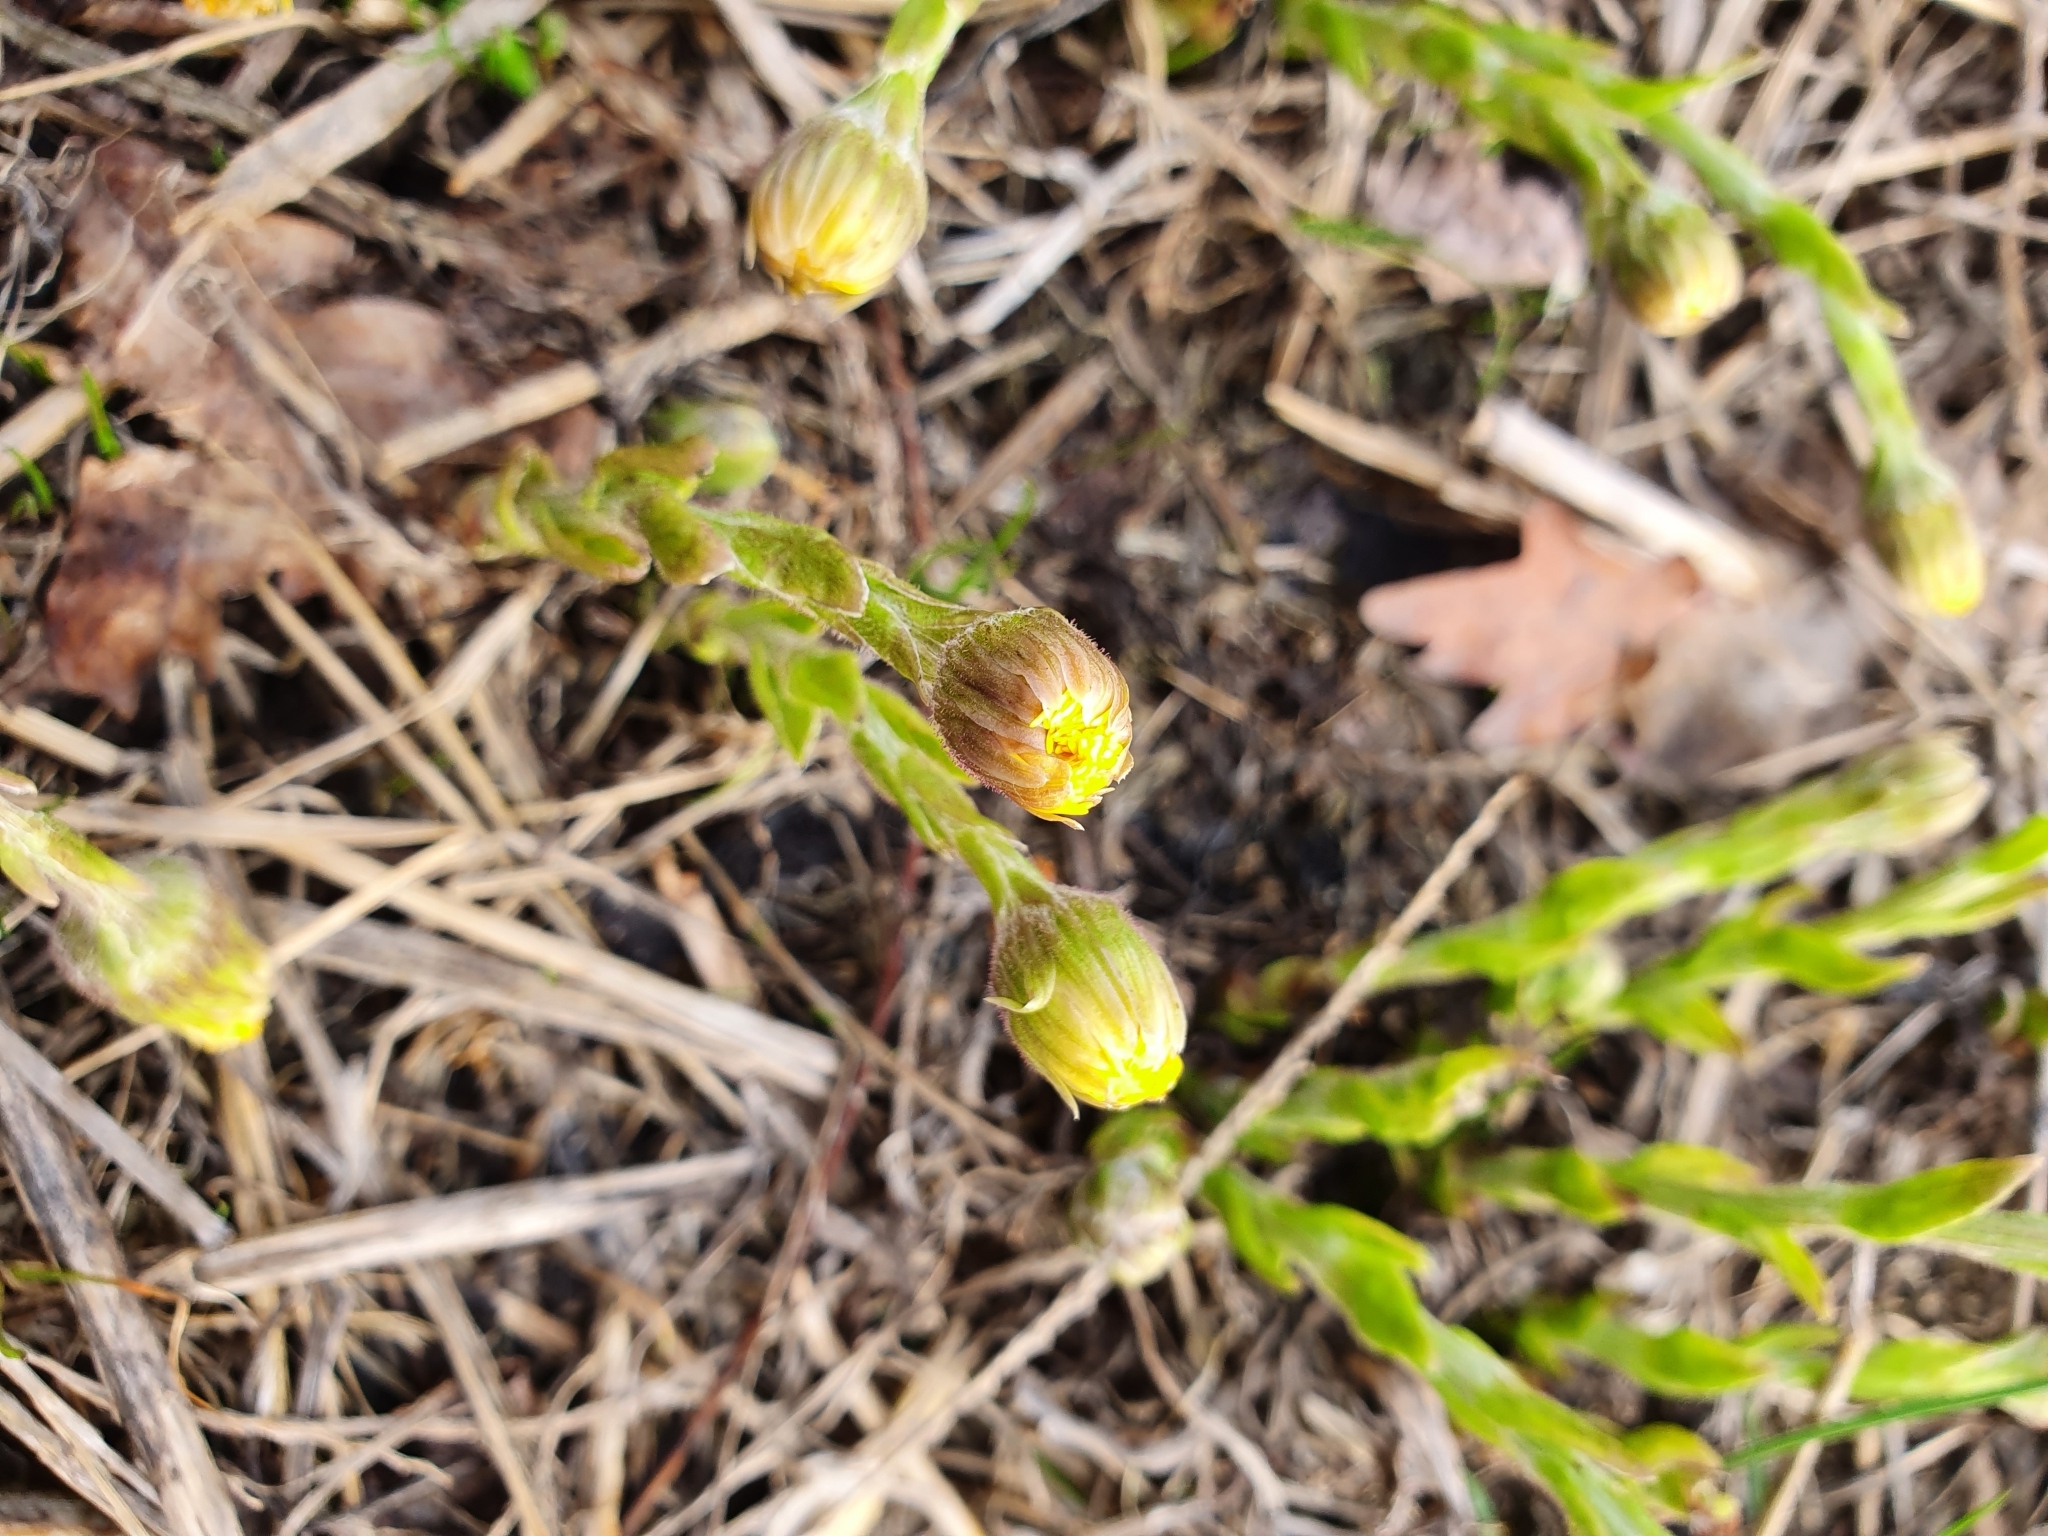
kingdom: Plantae
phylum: Tracheophyta
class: Magnoliopsida
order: Asterales
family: Asteraceae
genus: Tussilago
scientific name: Tussilago farfara
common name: Coltsfoot
